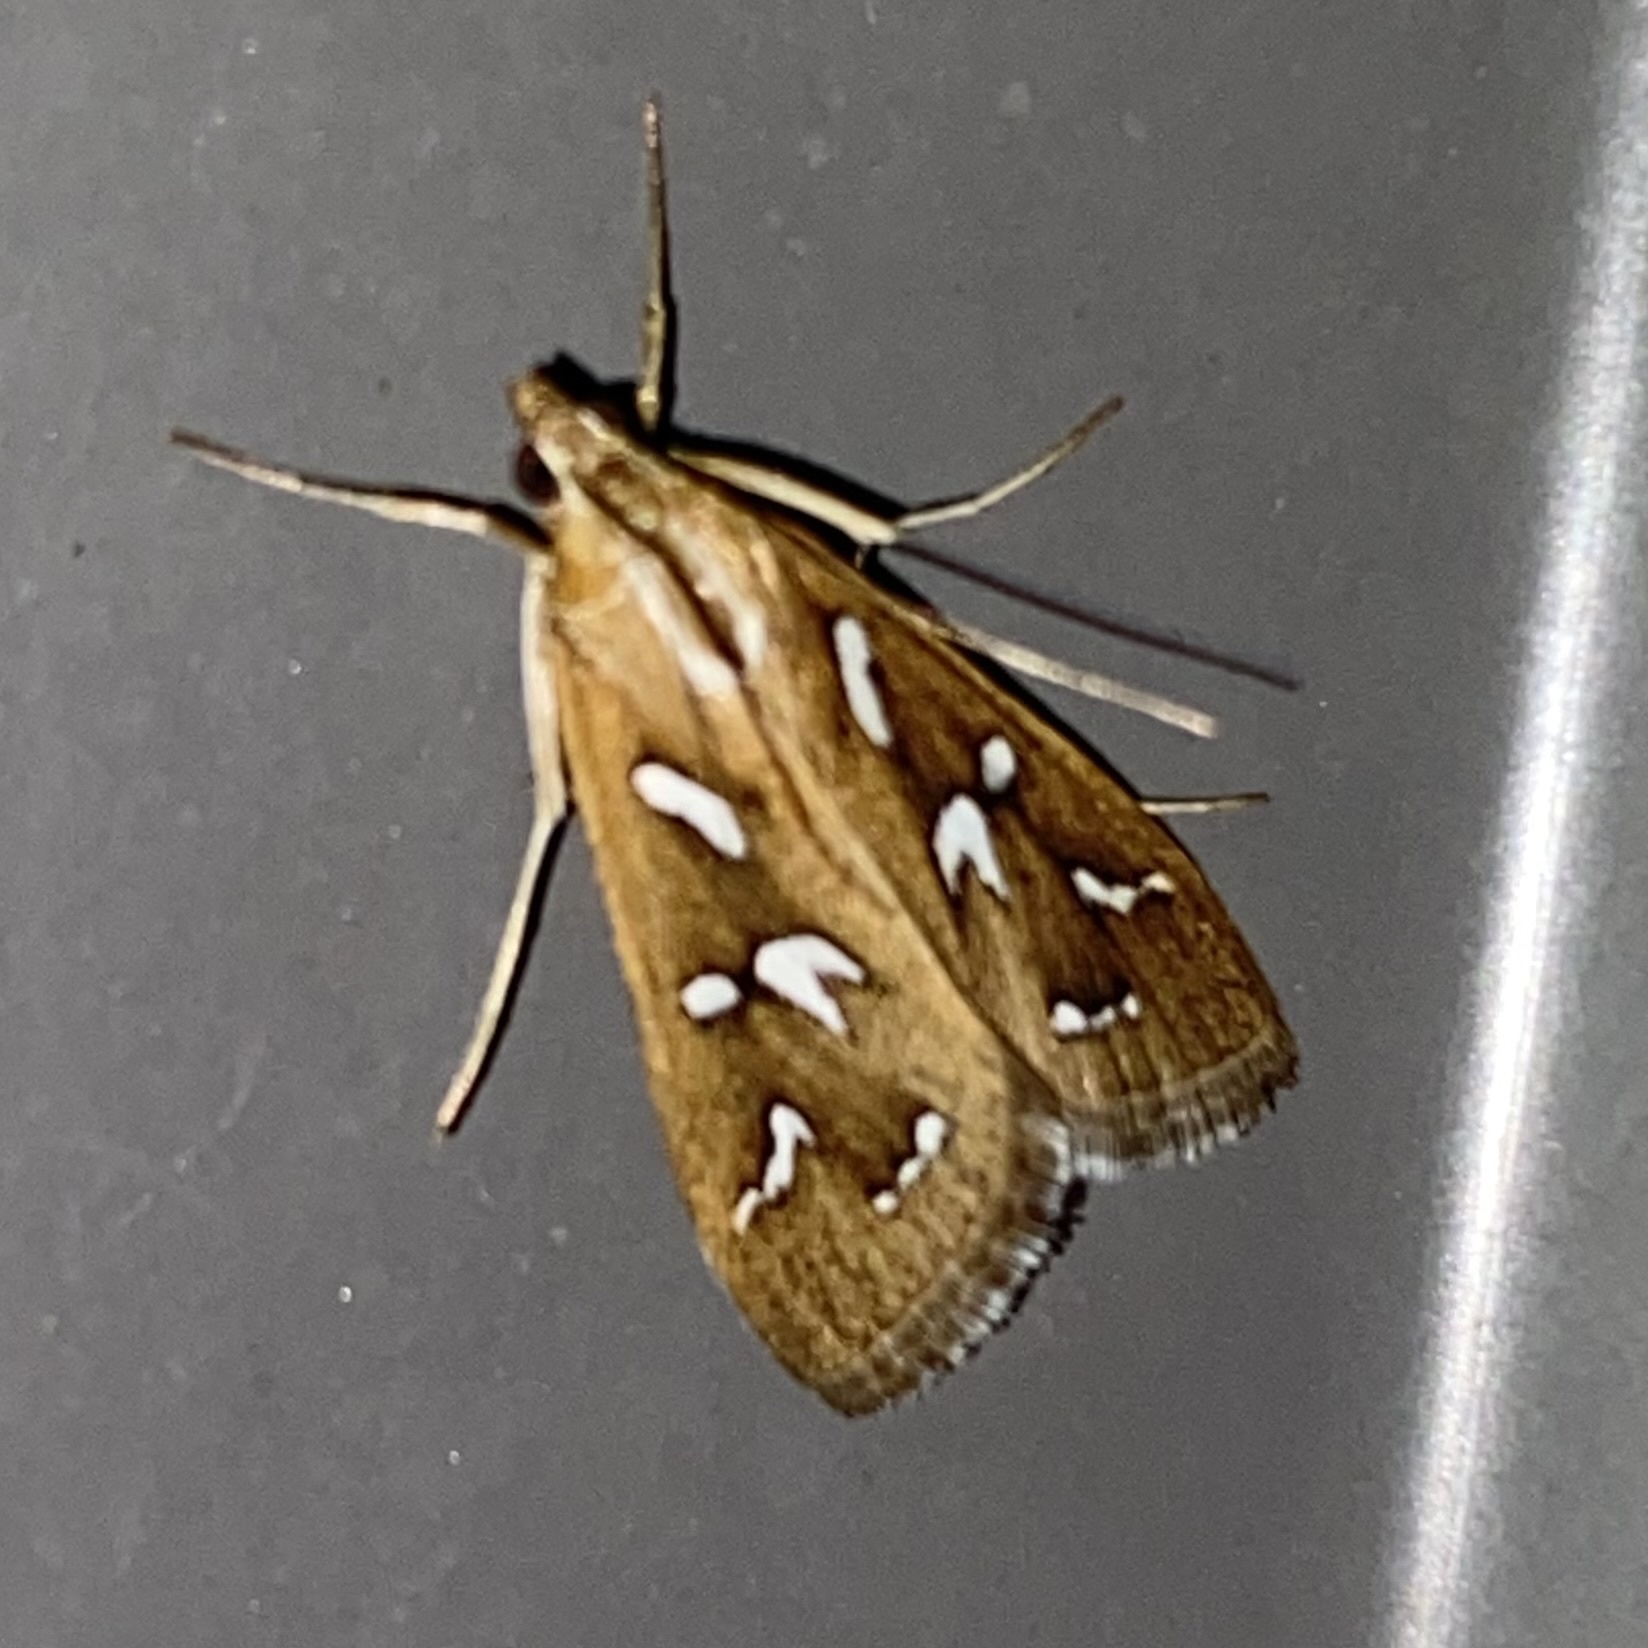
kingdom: Animalia
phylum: Arthropoda
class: Insecta
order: Lepidoptera
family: Crambidae
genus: Diastictis
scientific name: Diastictis fracturalis
